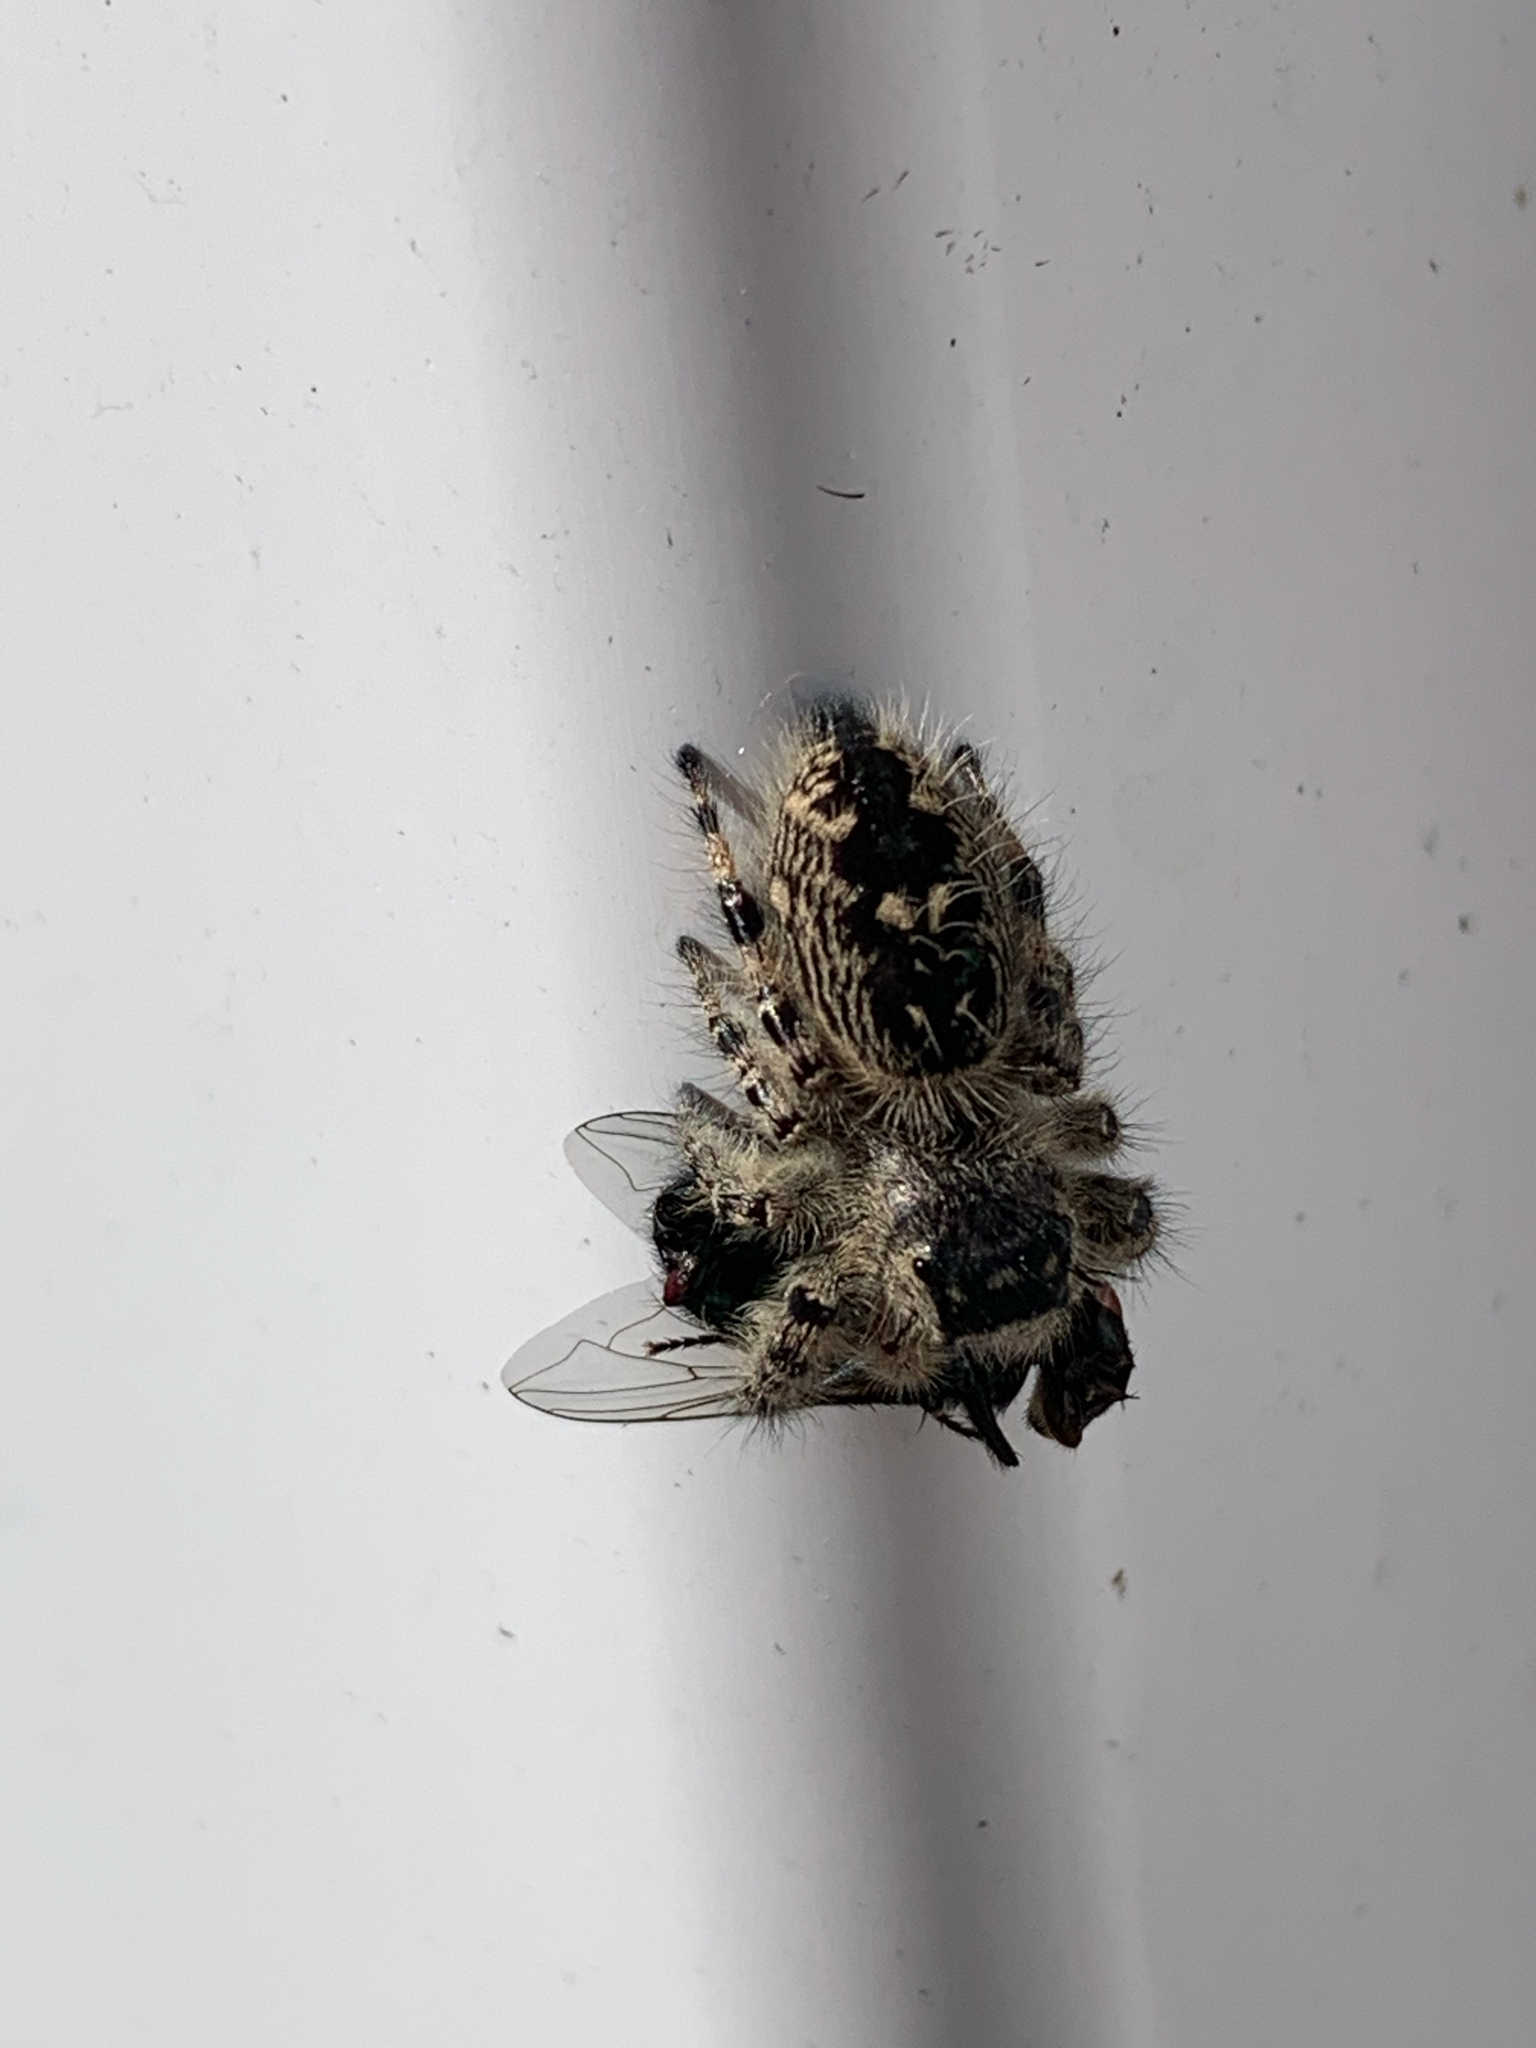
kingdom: Animalia
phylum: Arthropoda
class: Arachnida
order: Araneae
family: Salticidae
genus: Phidippus
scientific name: Phidippus otiosus
